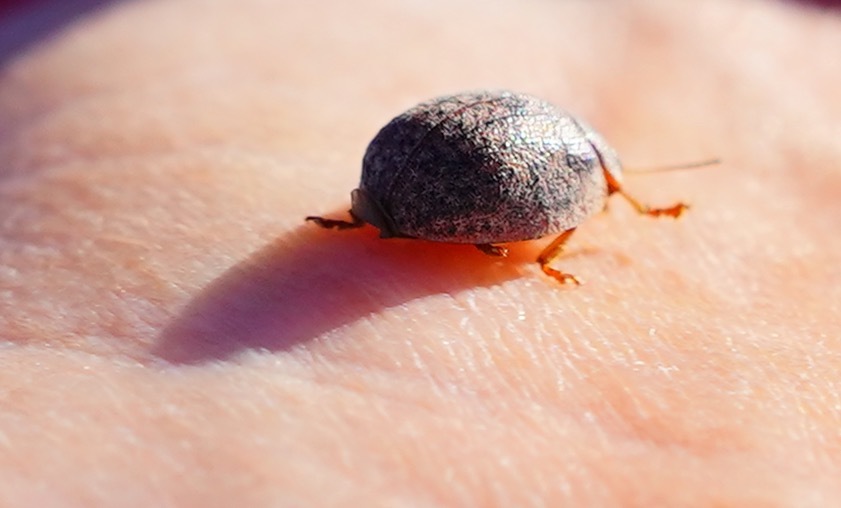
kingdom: Animalia
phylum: Arthropoda
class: Insecta
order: Coleoptera
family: Chrysomelidae
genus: Trachymela
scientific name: Trachymela sloanei
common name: Australian tortoise beetle
